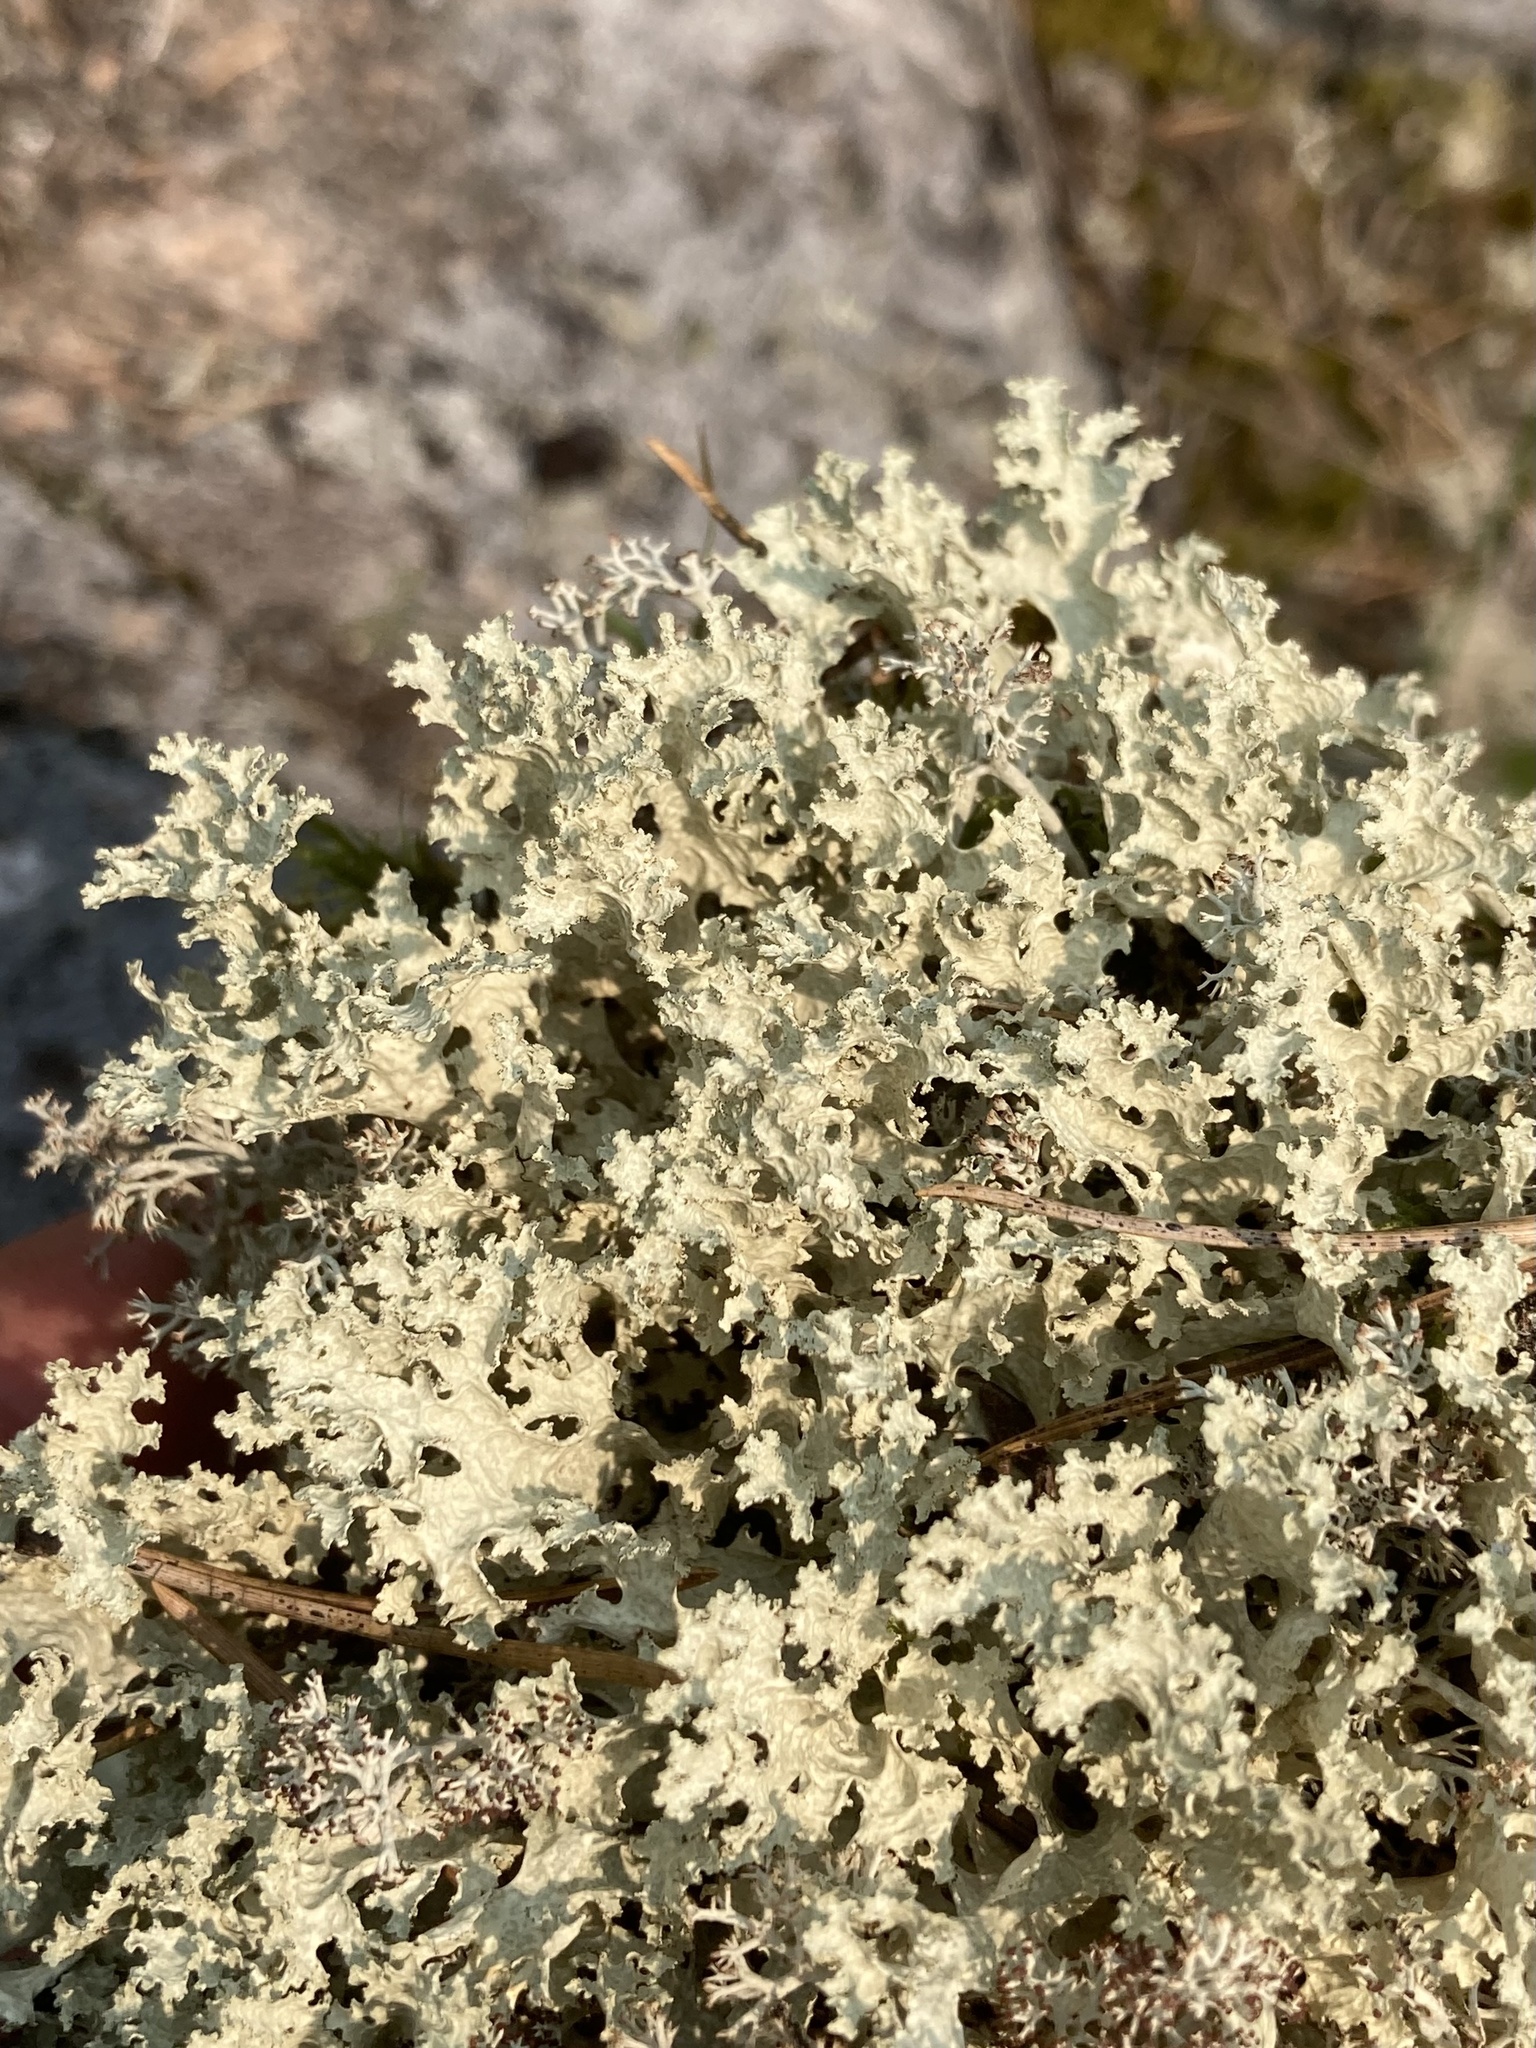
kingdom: Fungi
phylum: Ascomycota
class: Lecanoromycetes
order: Lecanorales
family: Parmeliaceae
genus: Nephromopsis
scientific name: Nephromopsis nivalis
